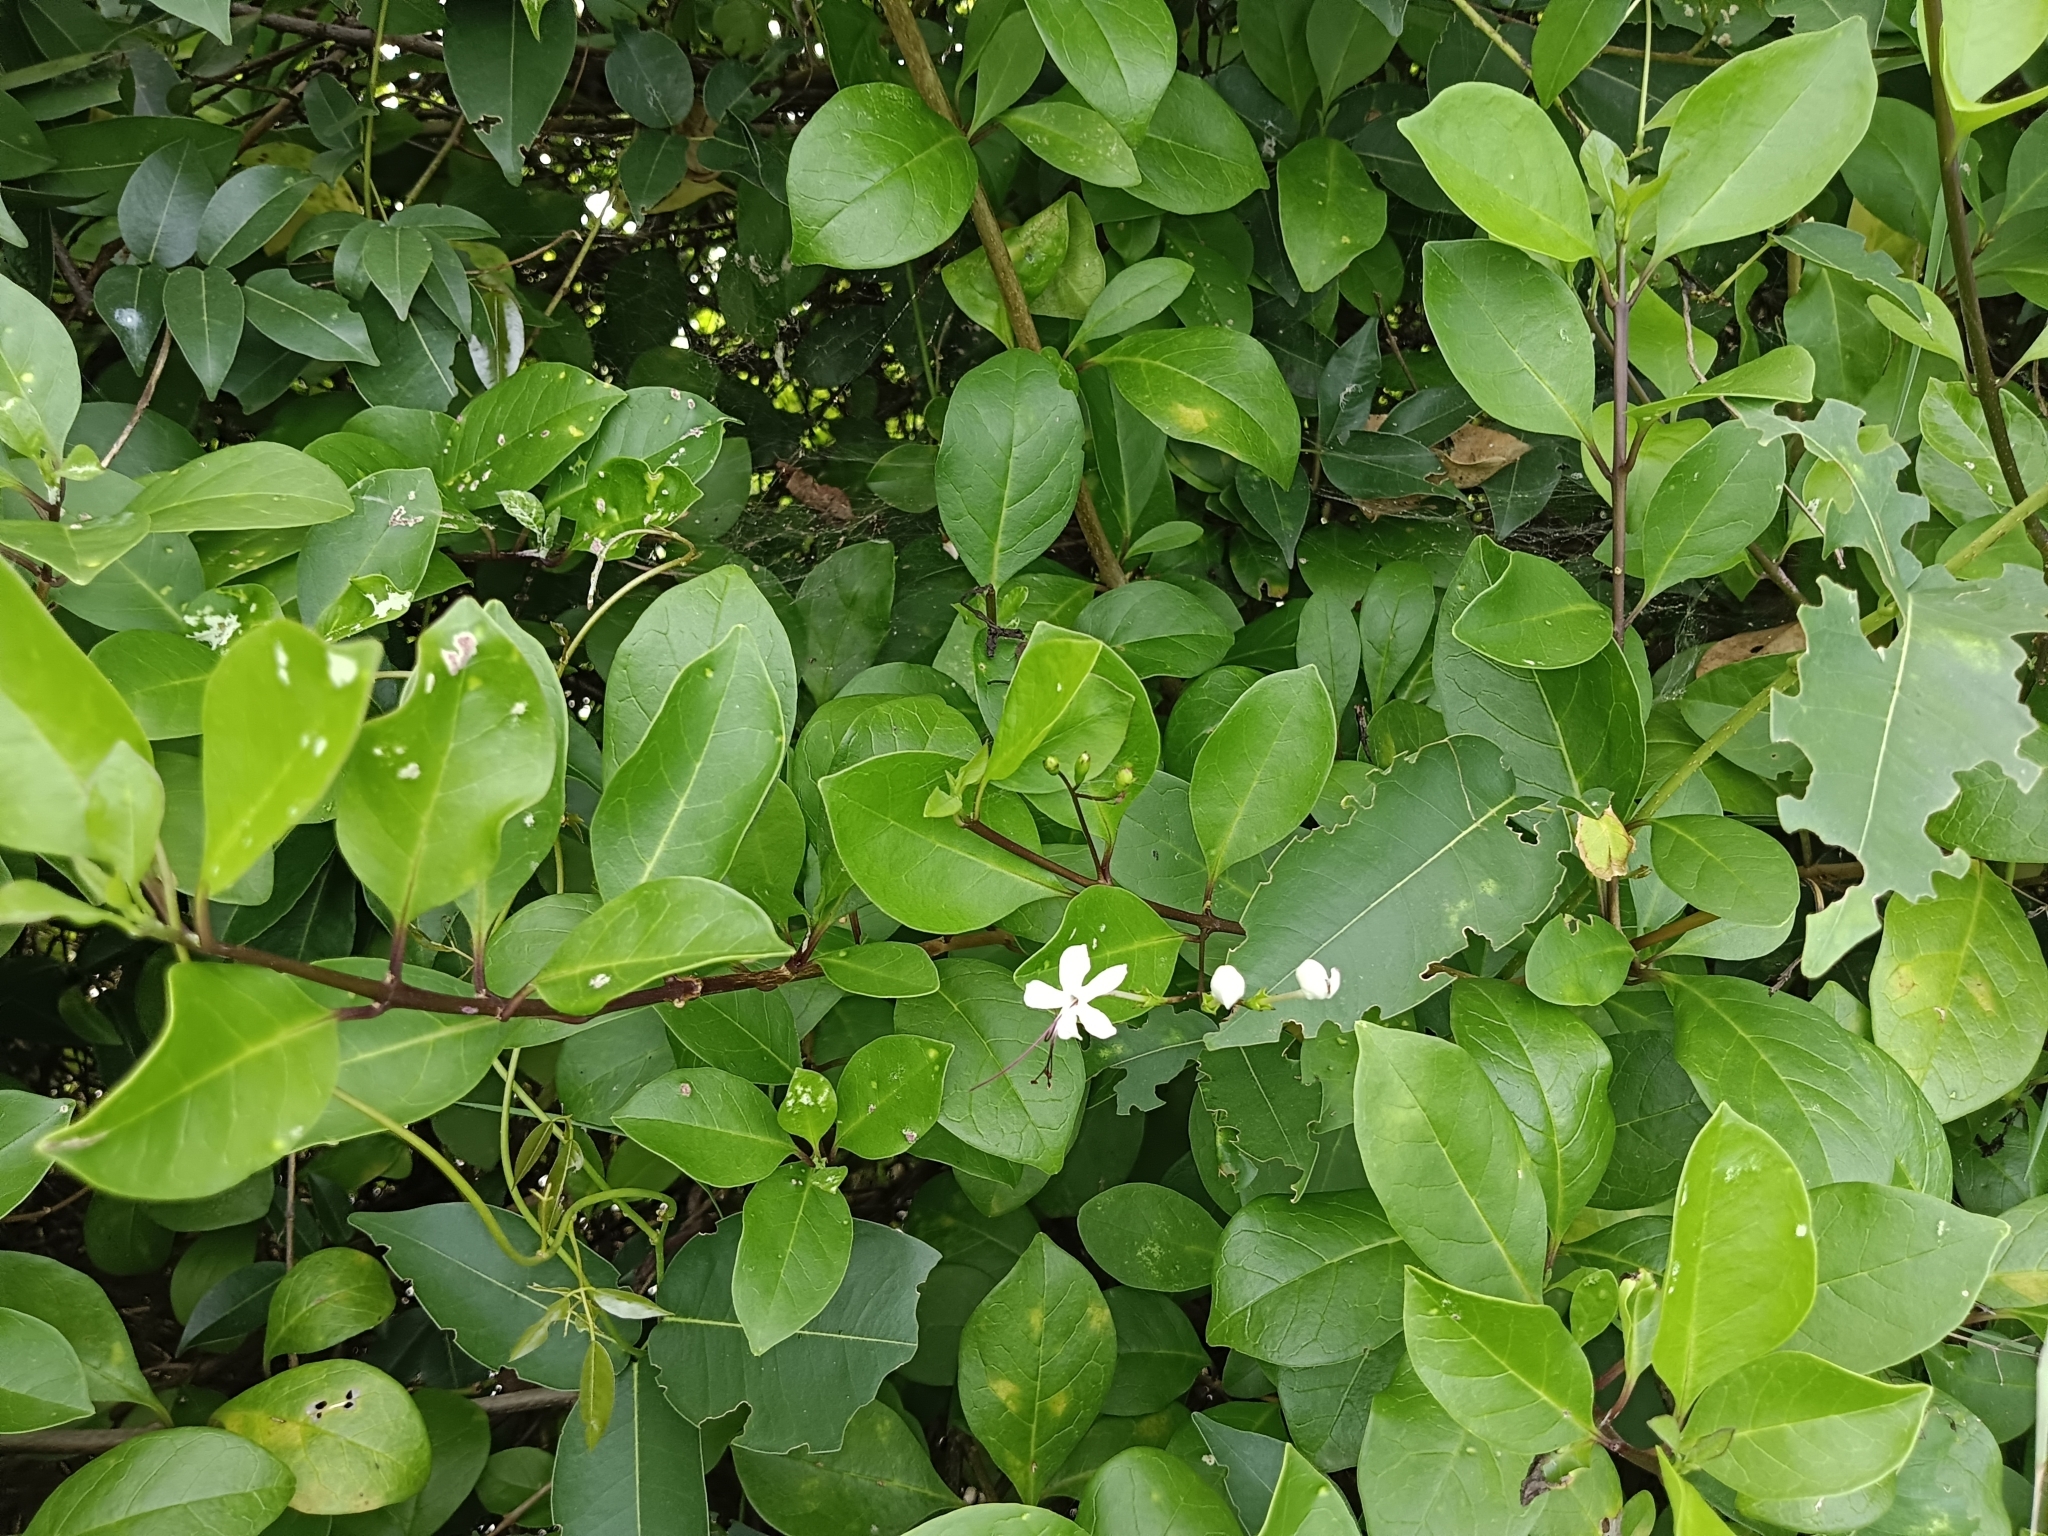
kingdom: Plantae
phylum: Tracheophyta
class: Magnoliopsida
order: Lamiales
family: Lamiaceae
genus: Volkameria
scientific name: Volkameria inermis
